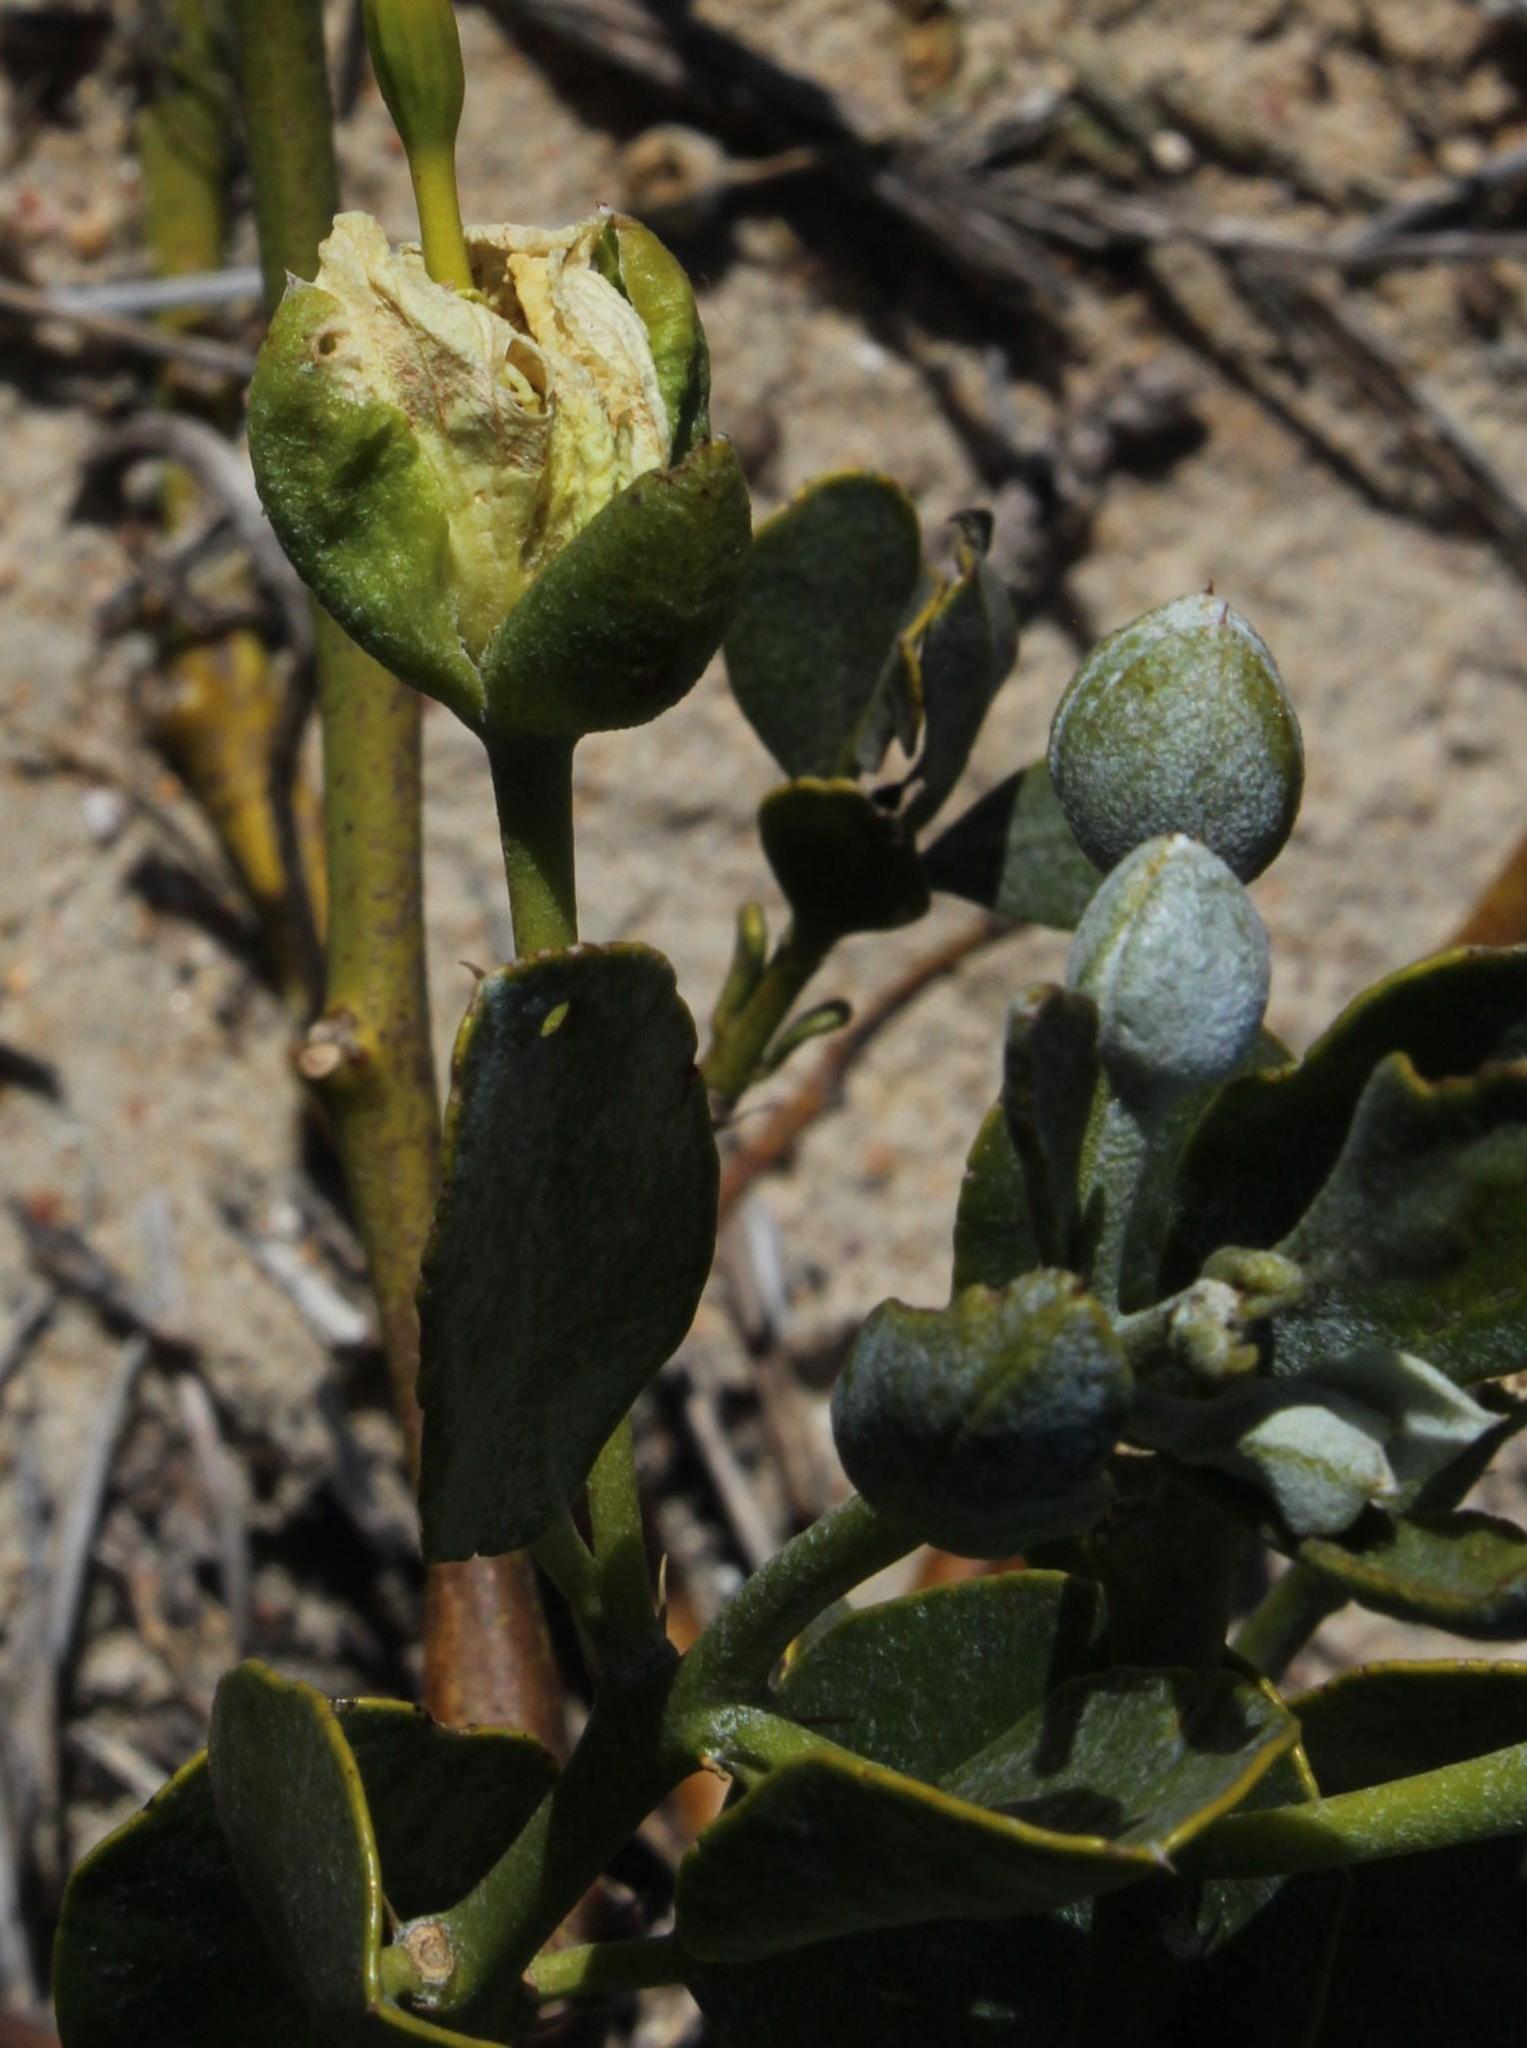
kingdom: Plantae
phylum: Tracheophyta
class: Magnoliopsida
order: Brassicales
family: Capparaceae
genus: Capparis
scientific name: Capparis hereroensis
